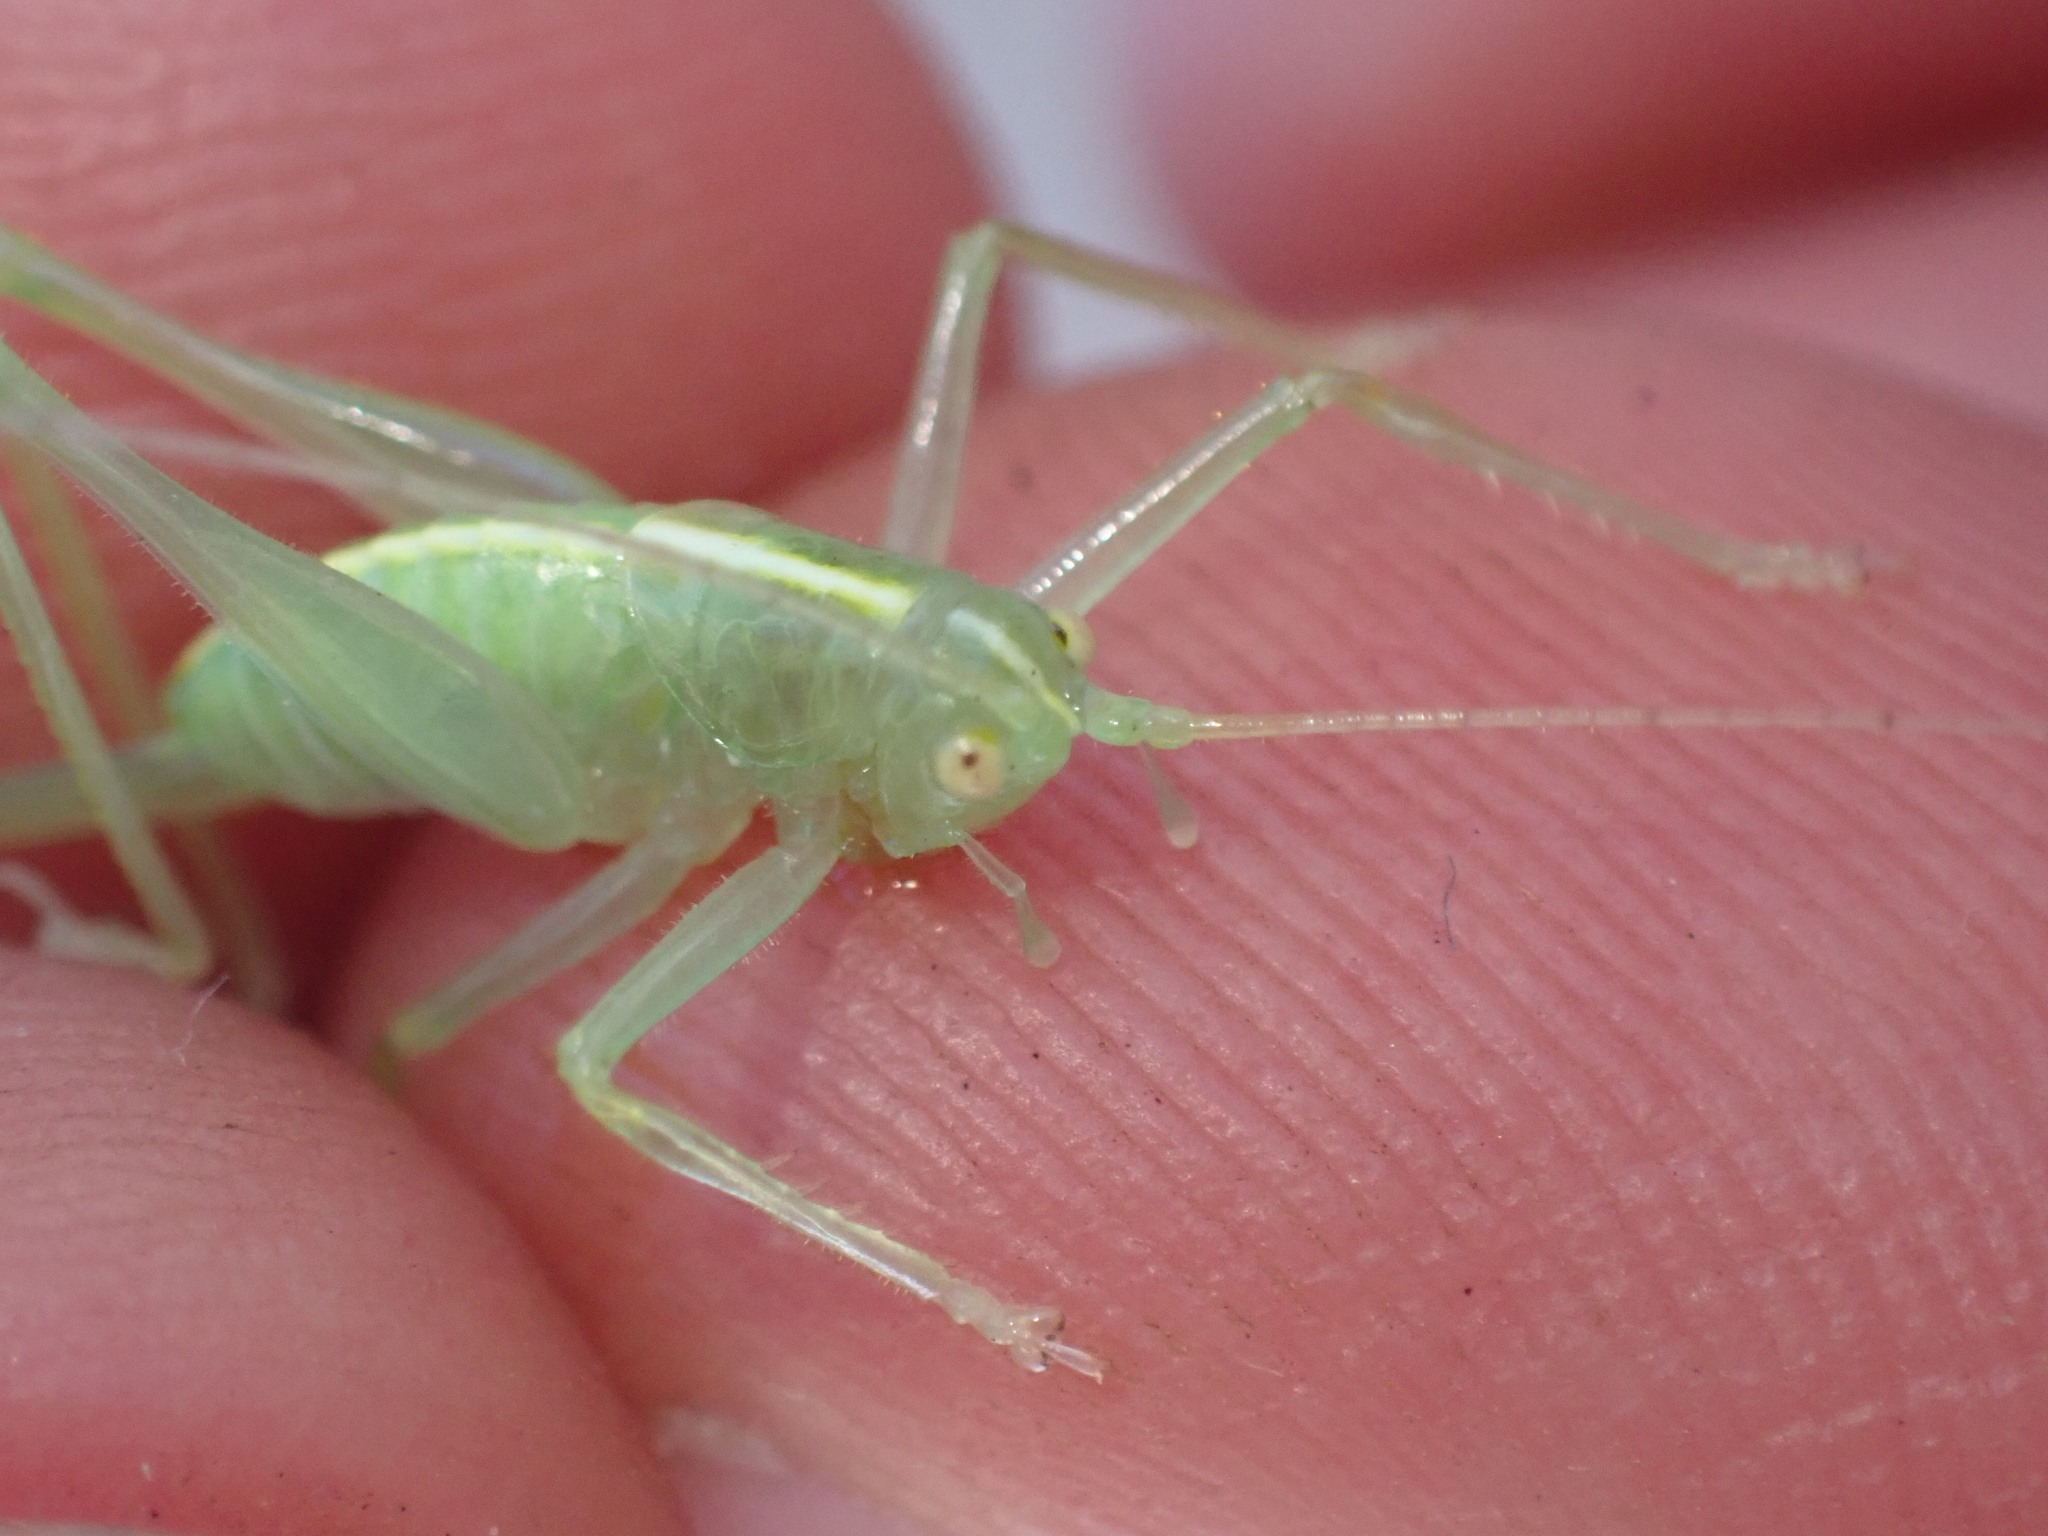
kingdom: Animalia
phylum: Arthropoda
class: Insecta
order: Orthoptera
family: Tettigoniidae
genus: Meconema
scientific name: Meconema meridionale
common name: Southern oak bush-cricket
